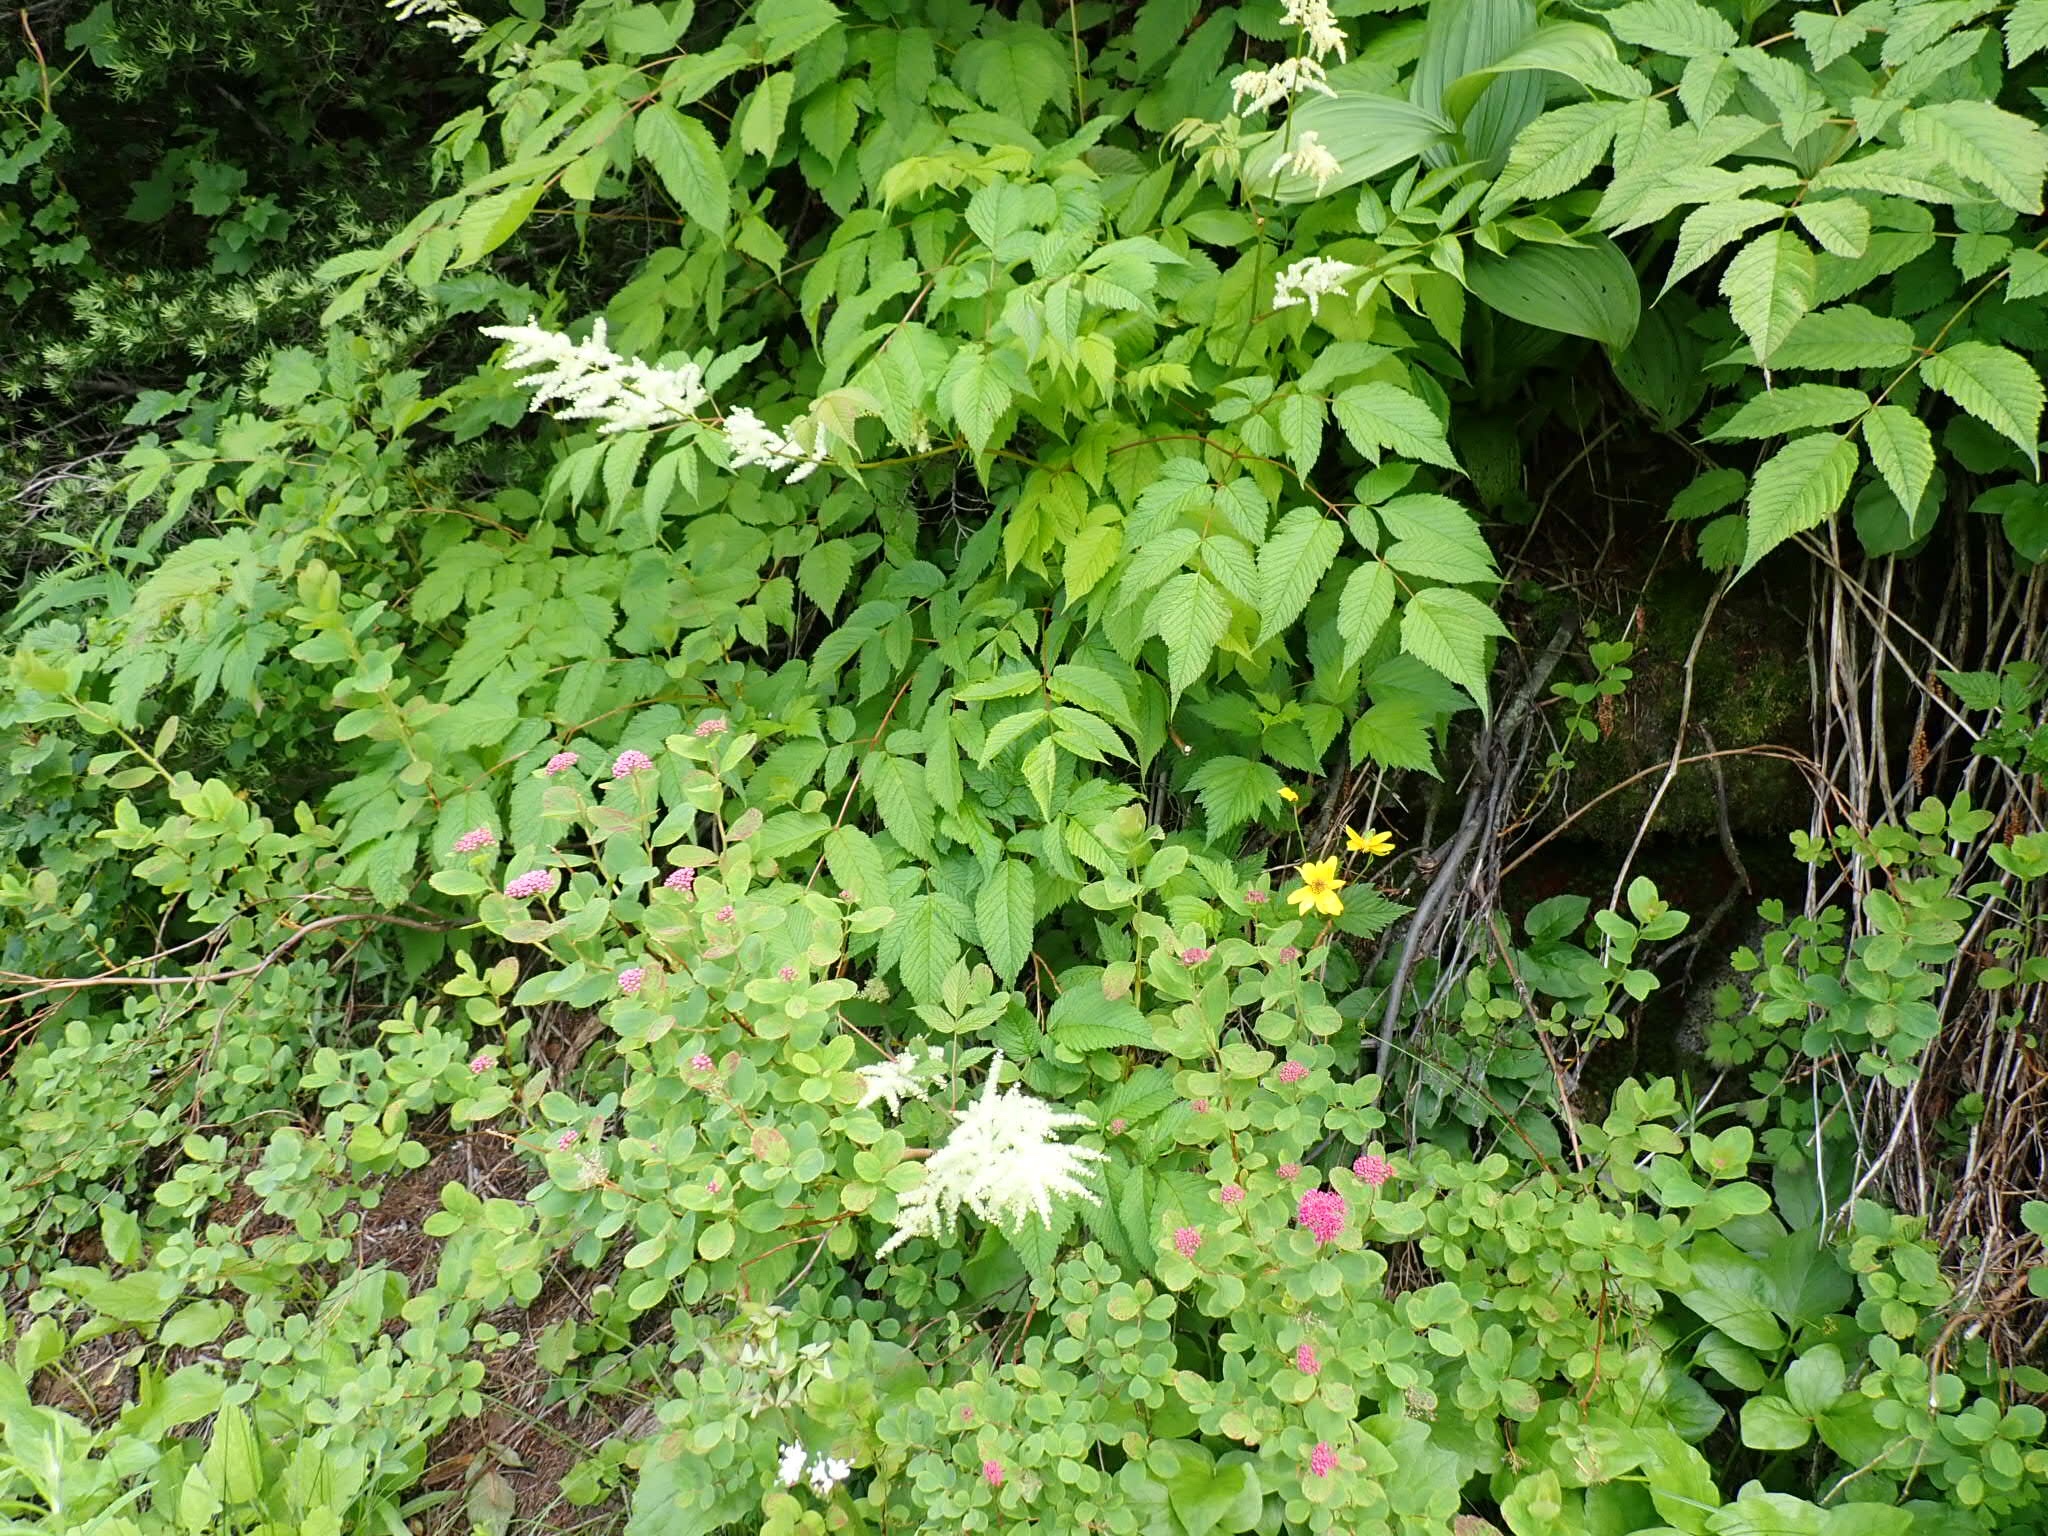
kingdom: Plantae
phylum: Tracheophyta
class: Magnoliopsida
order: Rosales
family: Rosaceae
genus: Aruncus
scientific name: Aruncus dioicus
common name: Buck's-beard
